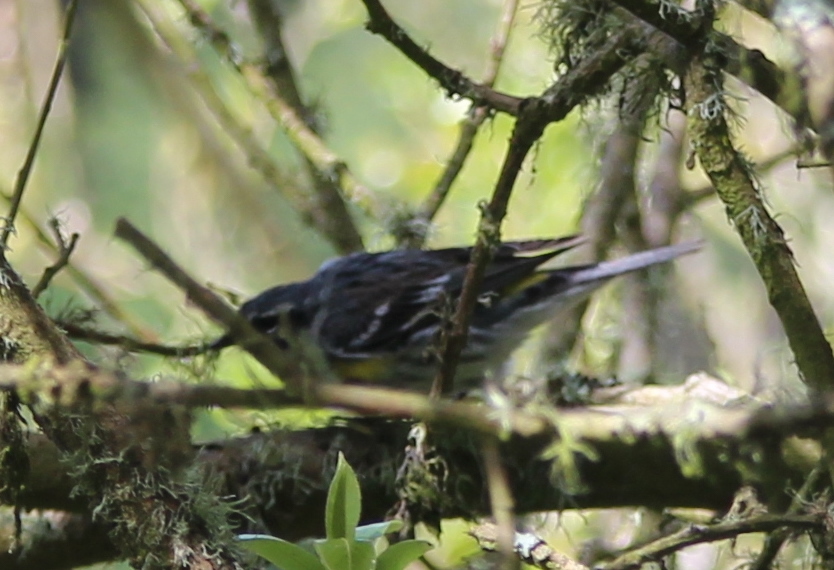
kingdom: Animalia
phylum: Chordata
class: Aves
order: Passeriformes
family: Parulidae
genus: Setophaga
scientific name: Setophaga coronata
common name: Myrtle warbler
